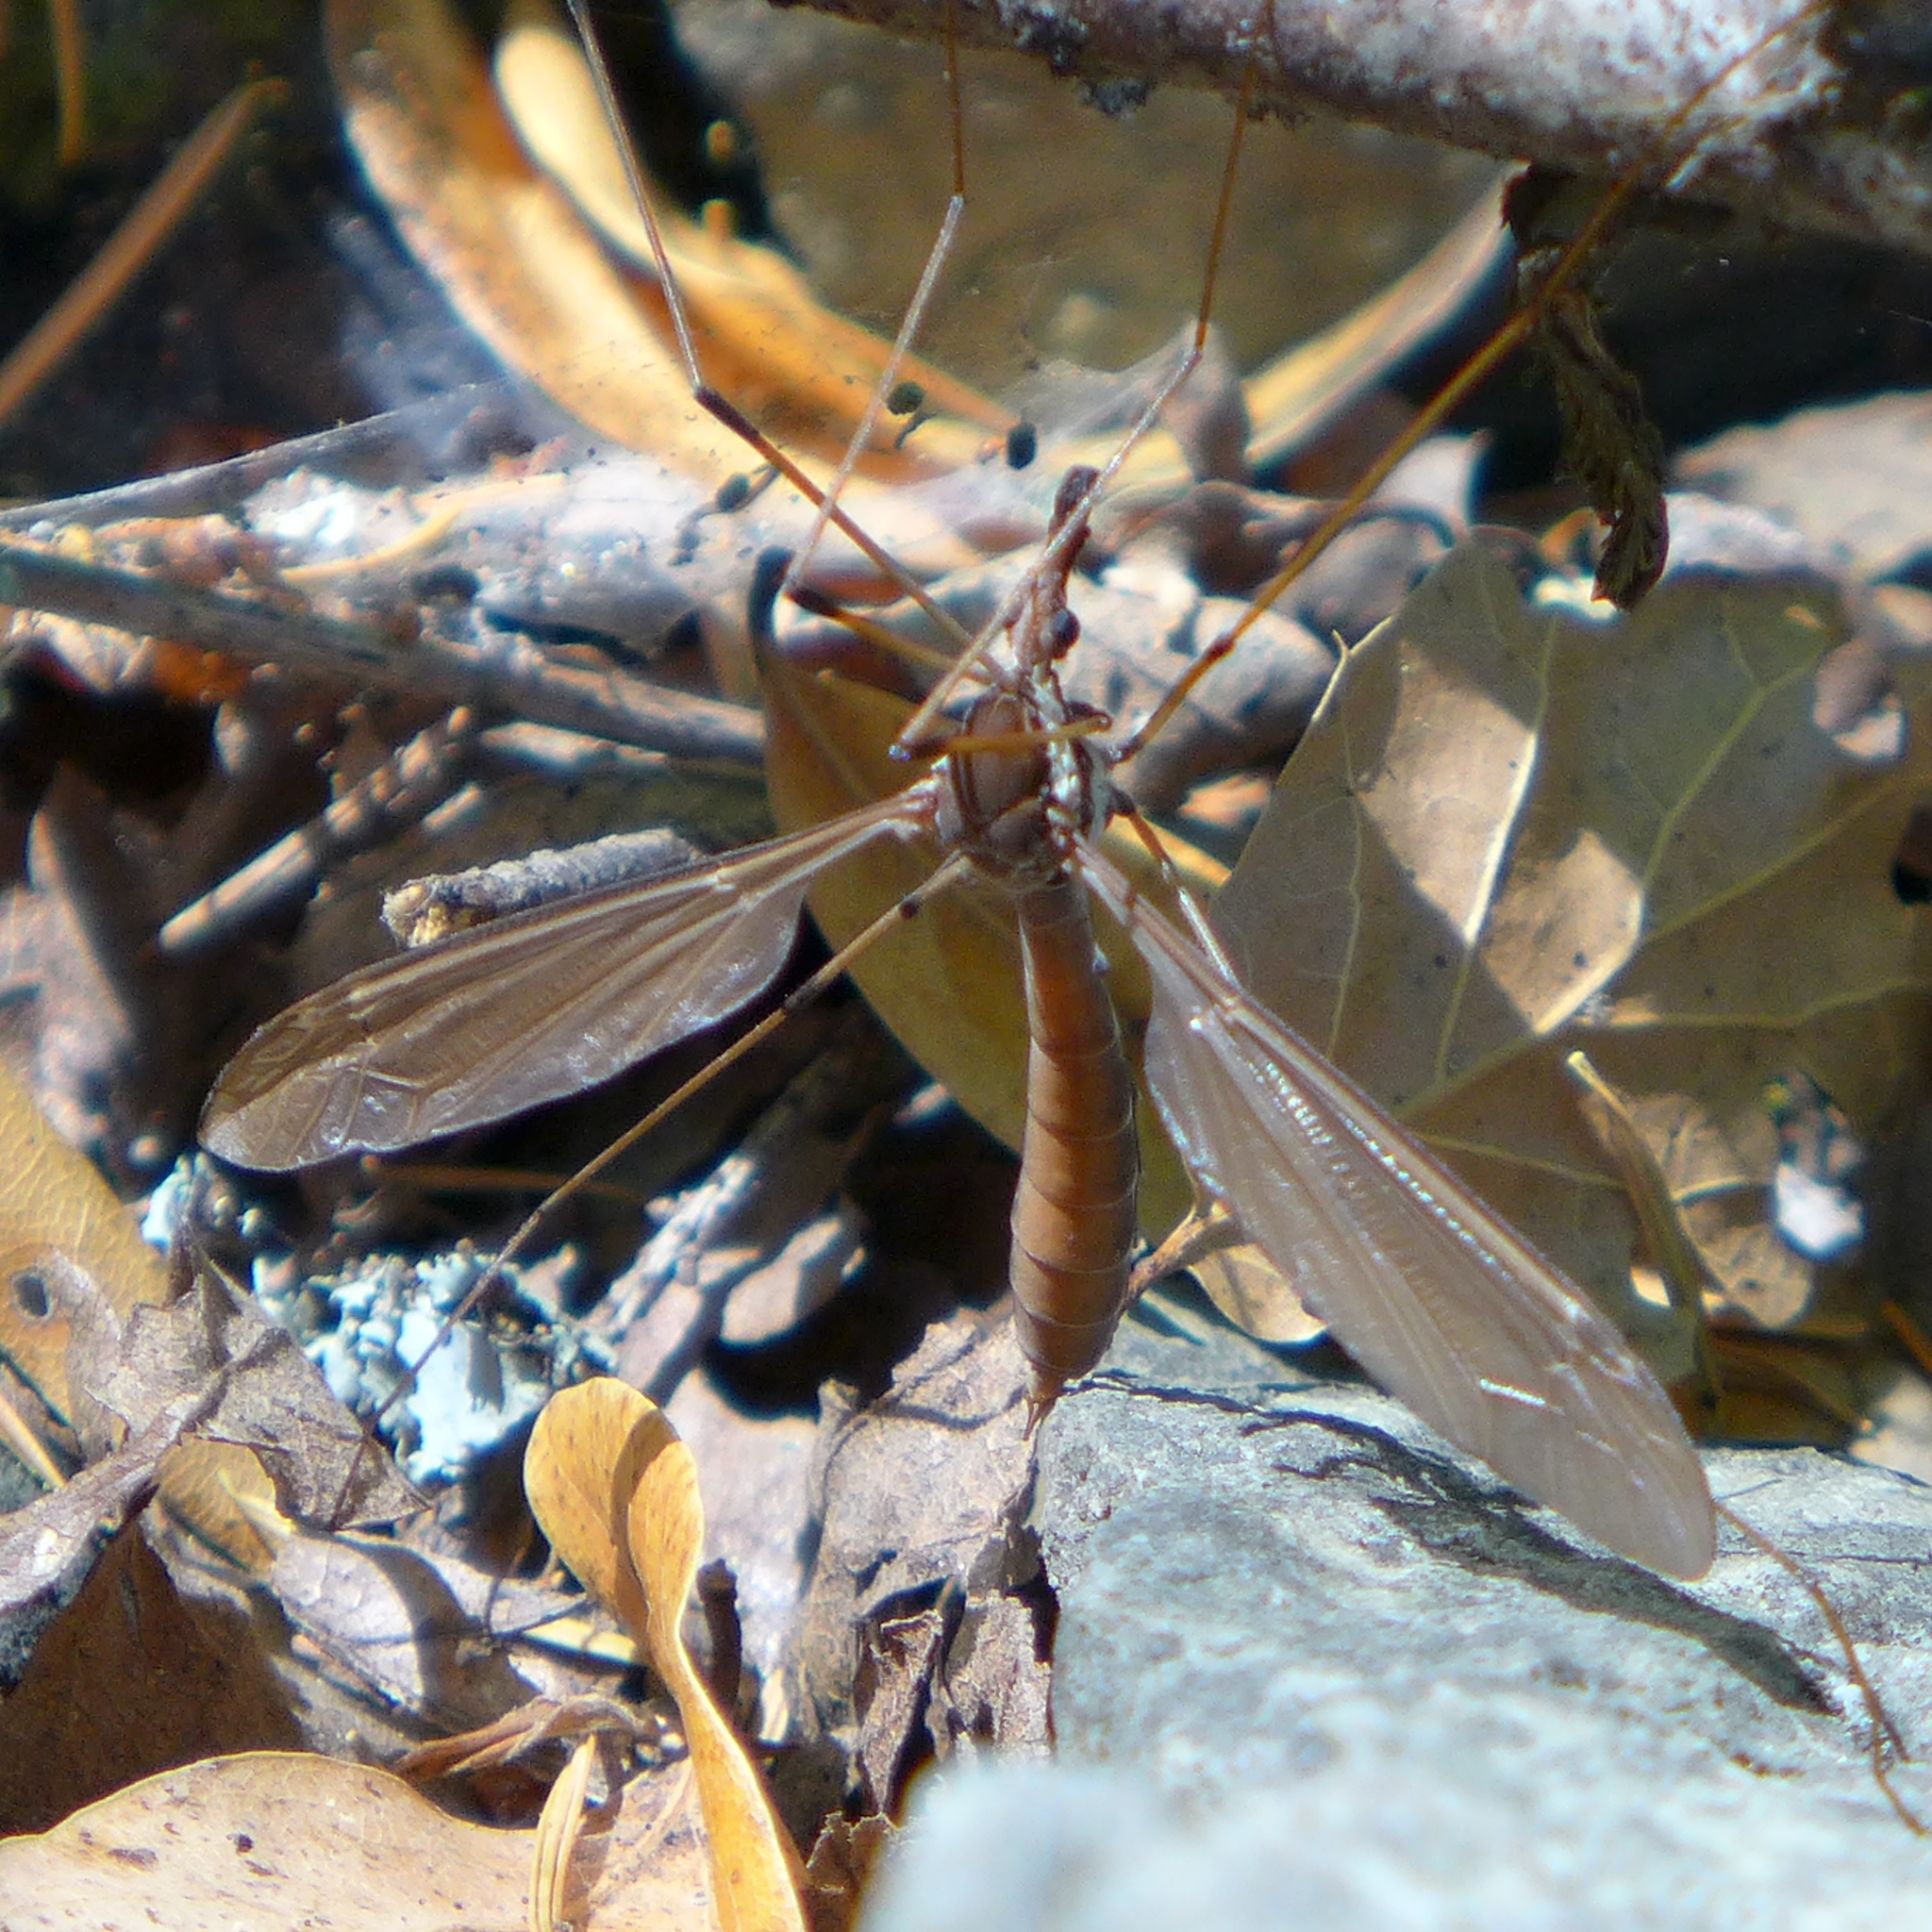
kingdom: Animalia
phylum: Arthropoda
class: Insecta
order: Diptera
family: Tipulidae
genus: Holorusia
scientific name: Holorusia hespera
